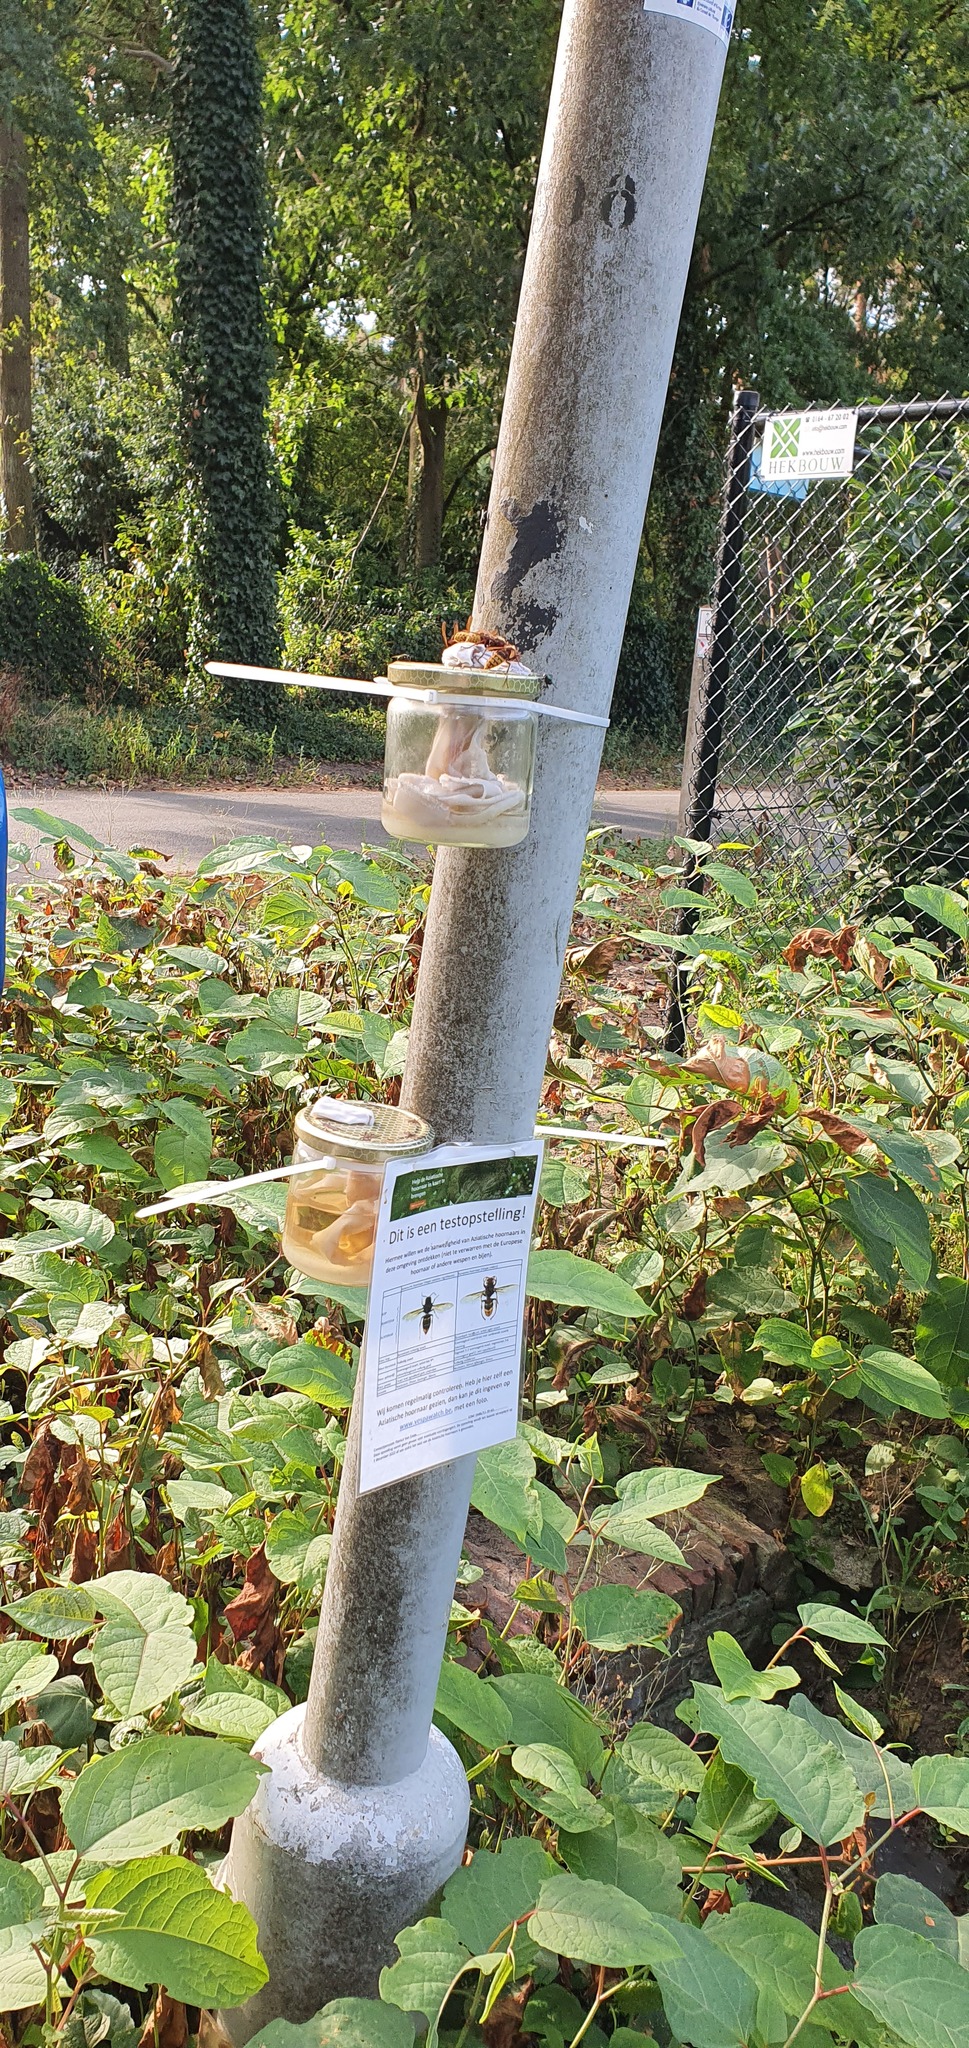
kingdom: Animalia
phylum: Arthropoda
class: Insecta
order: Hymenoptera
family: Vespidae
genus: Vespa
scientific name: Vespa crabro
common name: Hornet
